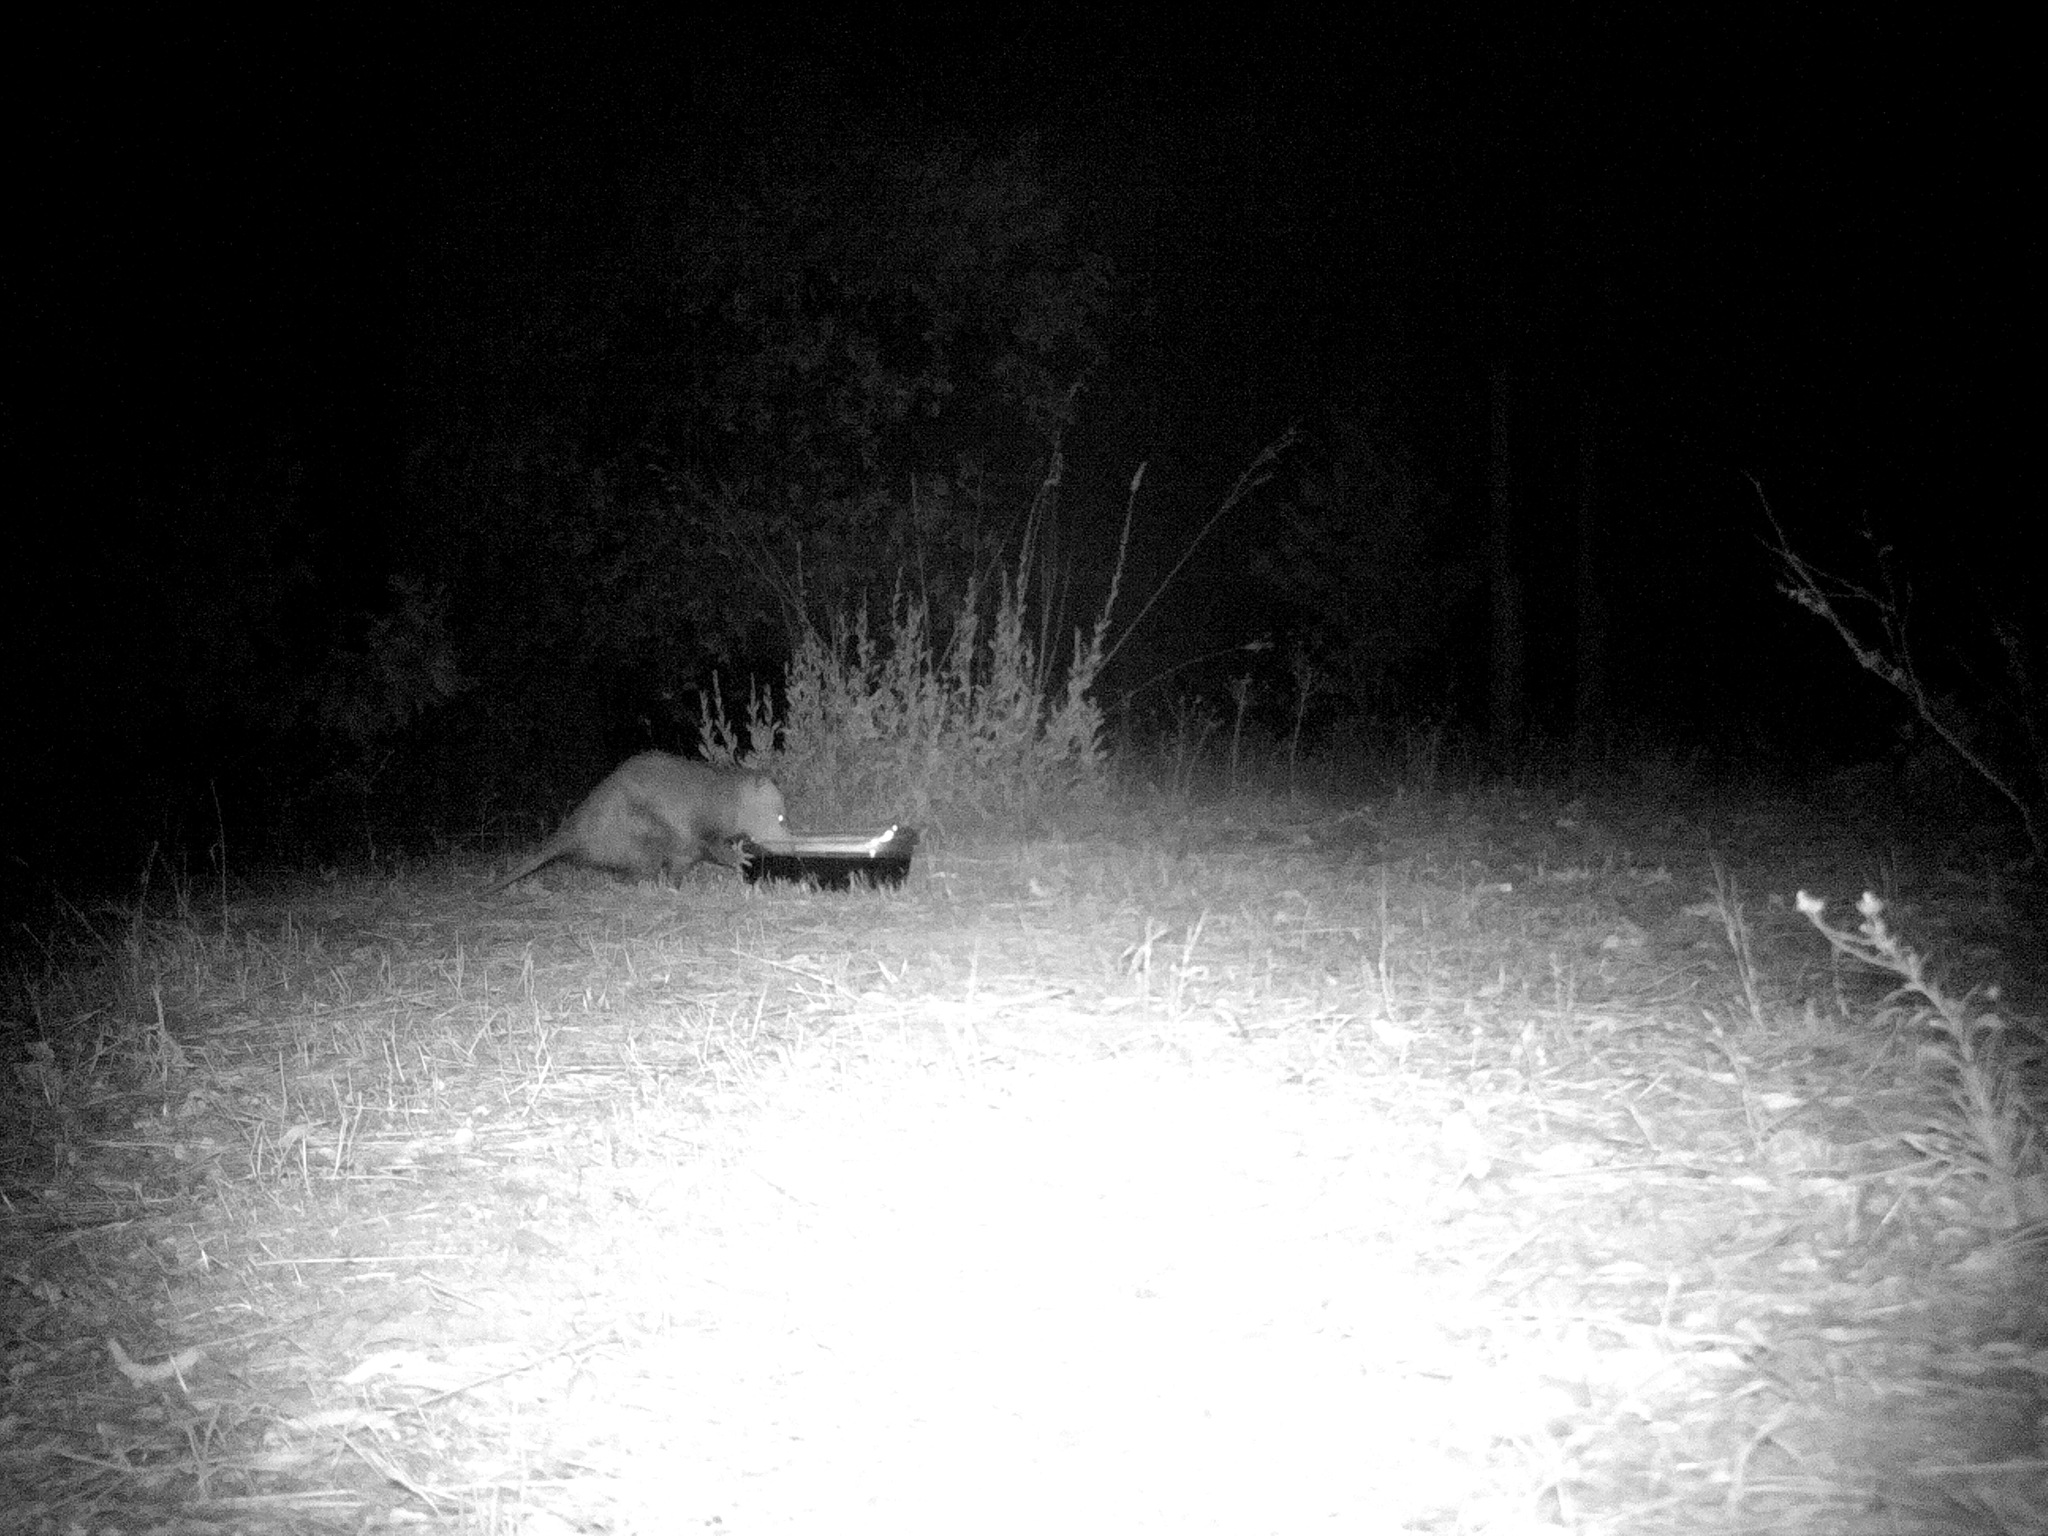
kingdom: Animalia
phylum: Chordata
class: Mammalia
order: Didelphimorphia
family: Didelphidae
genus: Didelphis
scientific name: Didelphis virginiana
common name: Virginia opossum
